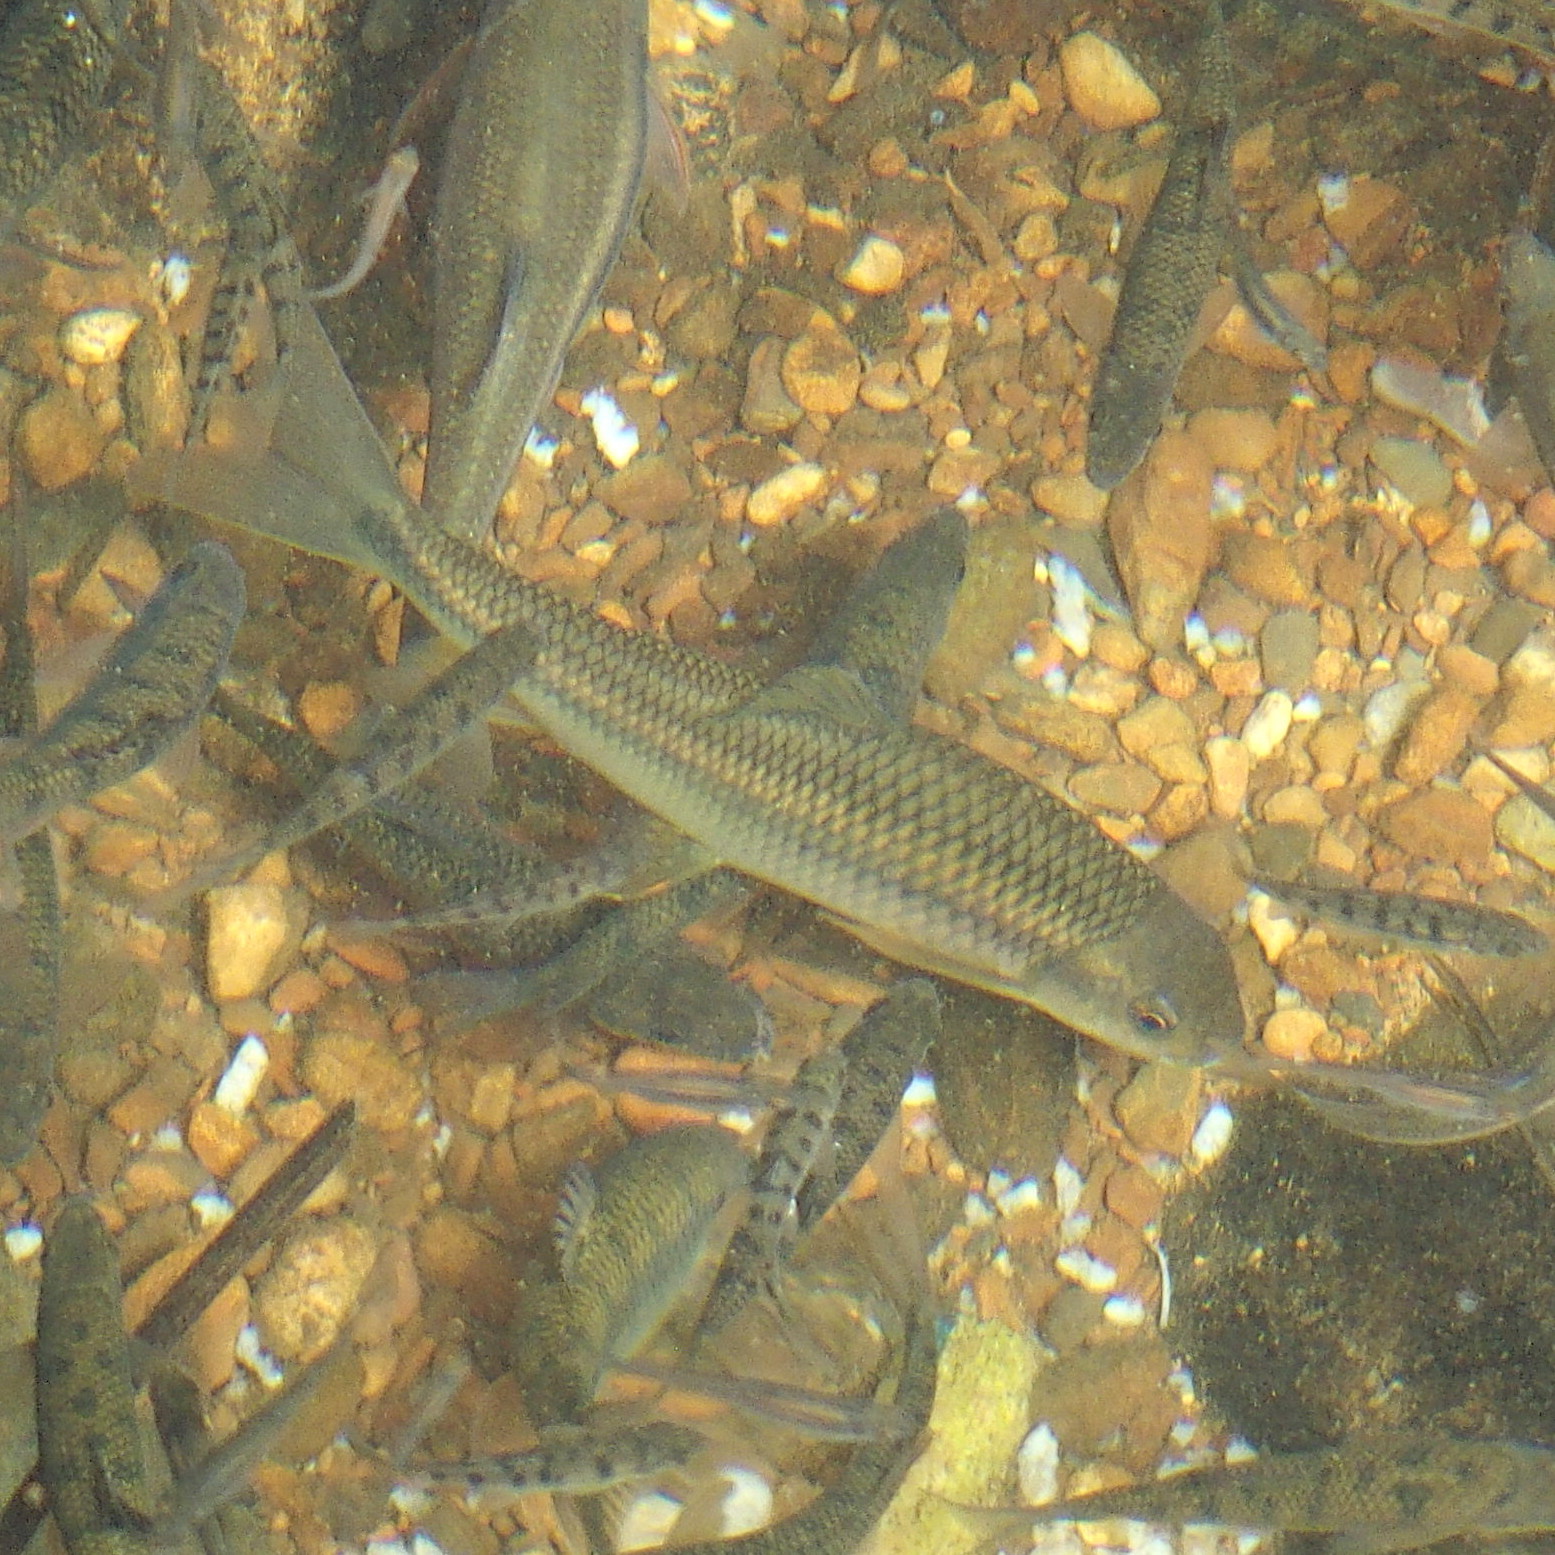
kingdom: Animalia
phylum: Chordata
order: Cypriniformes
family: Cyprinidae
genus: Onychostoma
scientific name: Onychostoma barbatulum
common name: Taiwan shoveljaw carp
